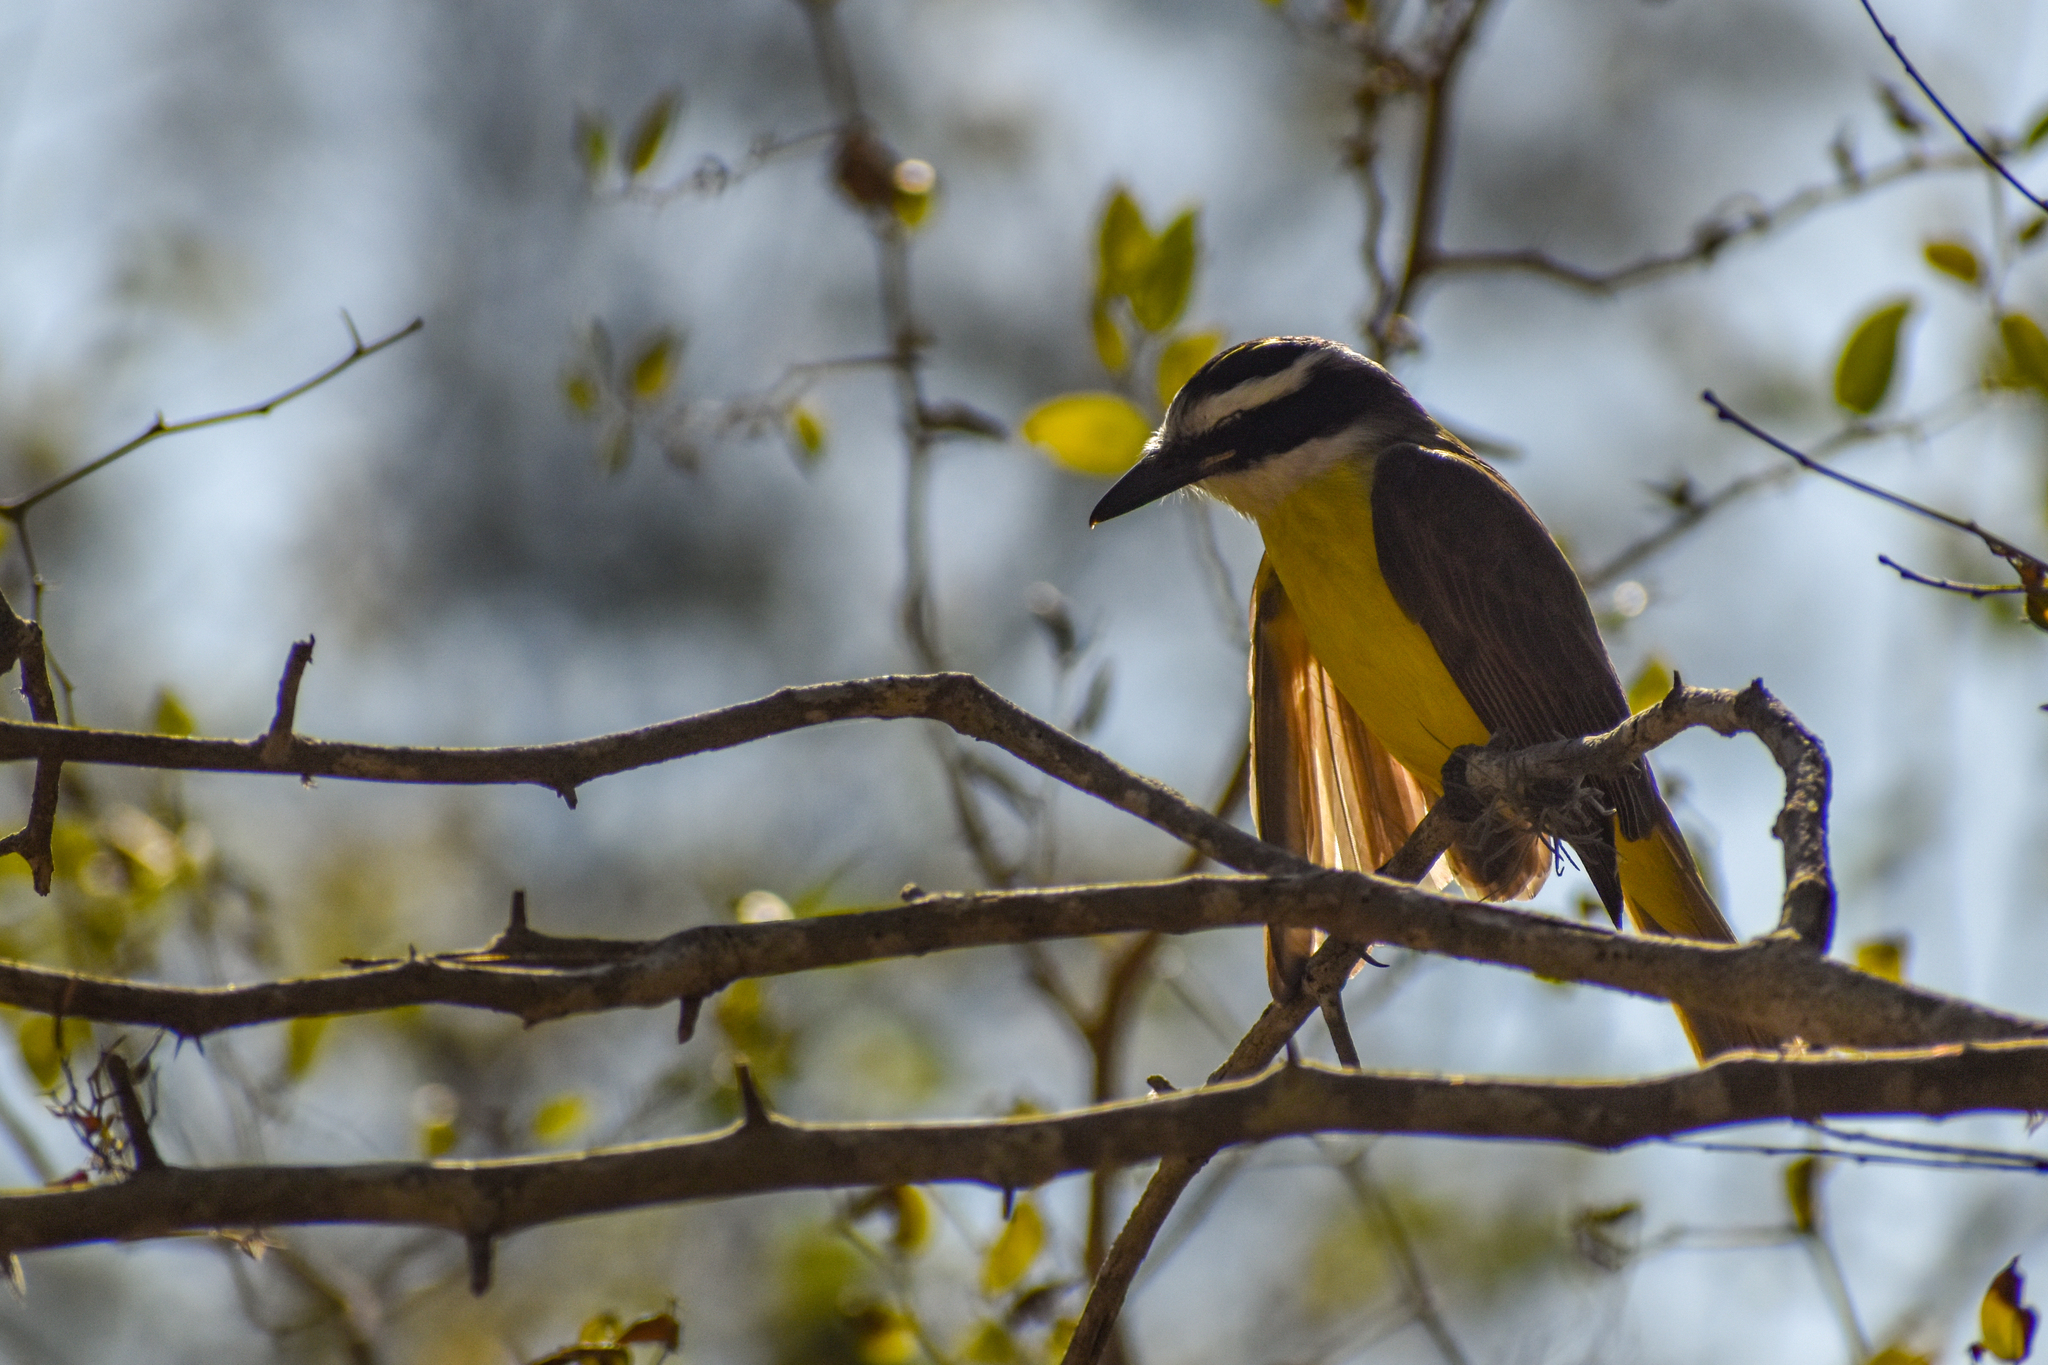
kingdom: Animalia
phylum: Chordata
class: Aves
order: Passeriformes
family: Tyrannidae
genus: Pitangus
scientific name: Pitangus sulphuratus
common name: Great kiskadee
